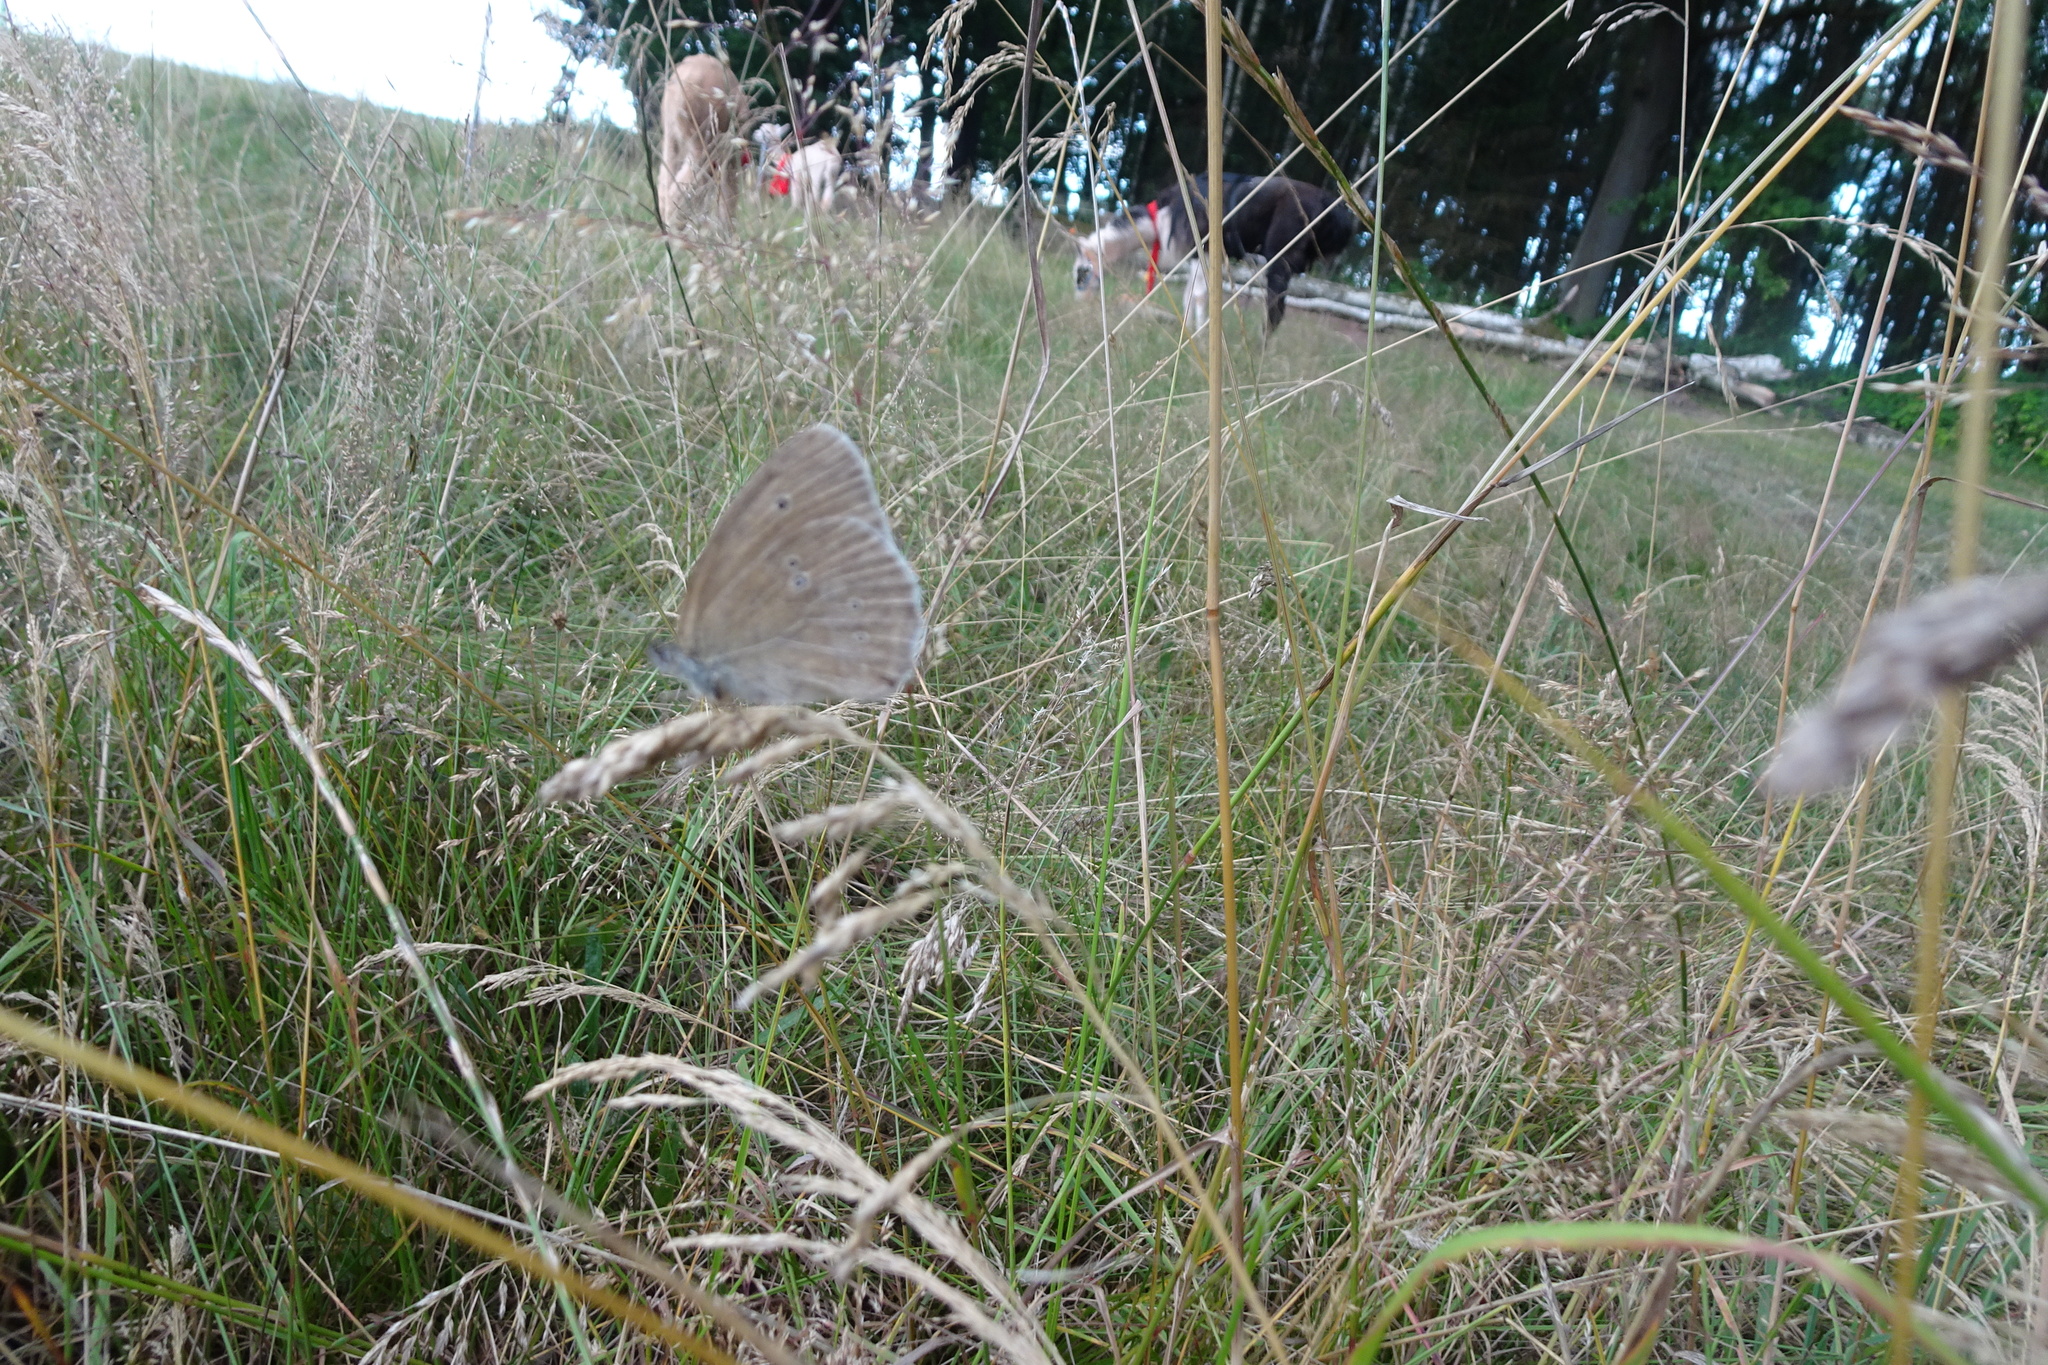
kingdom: Animalia
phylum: Arthropoda
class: Insecta
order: Lepidoptera
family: Nymphalidae
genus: Aphantopus
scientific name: Aphantopus hyperantus
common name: Ringlet
